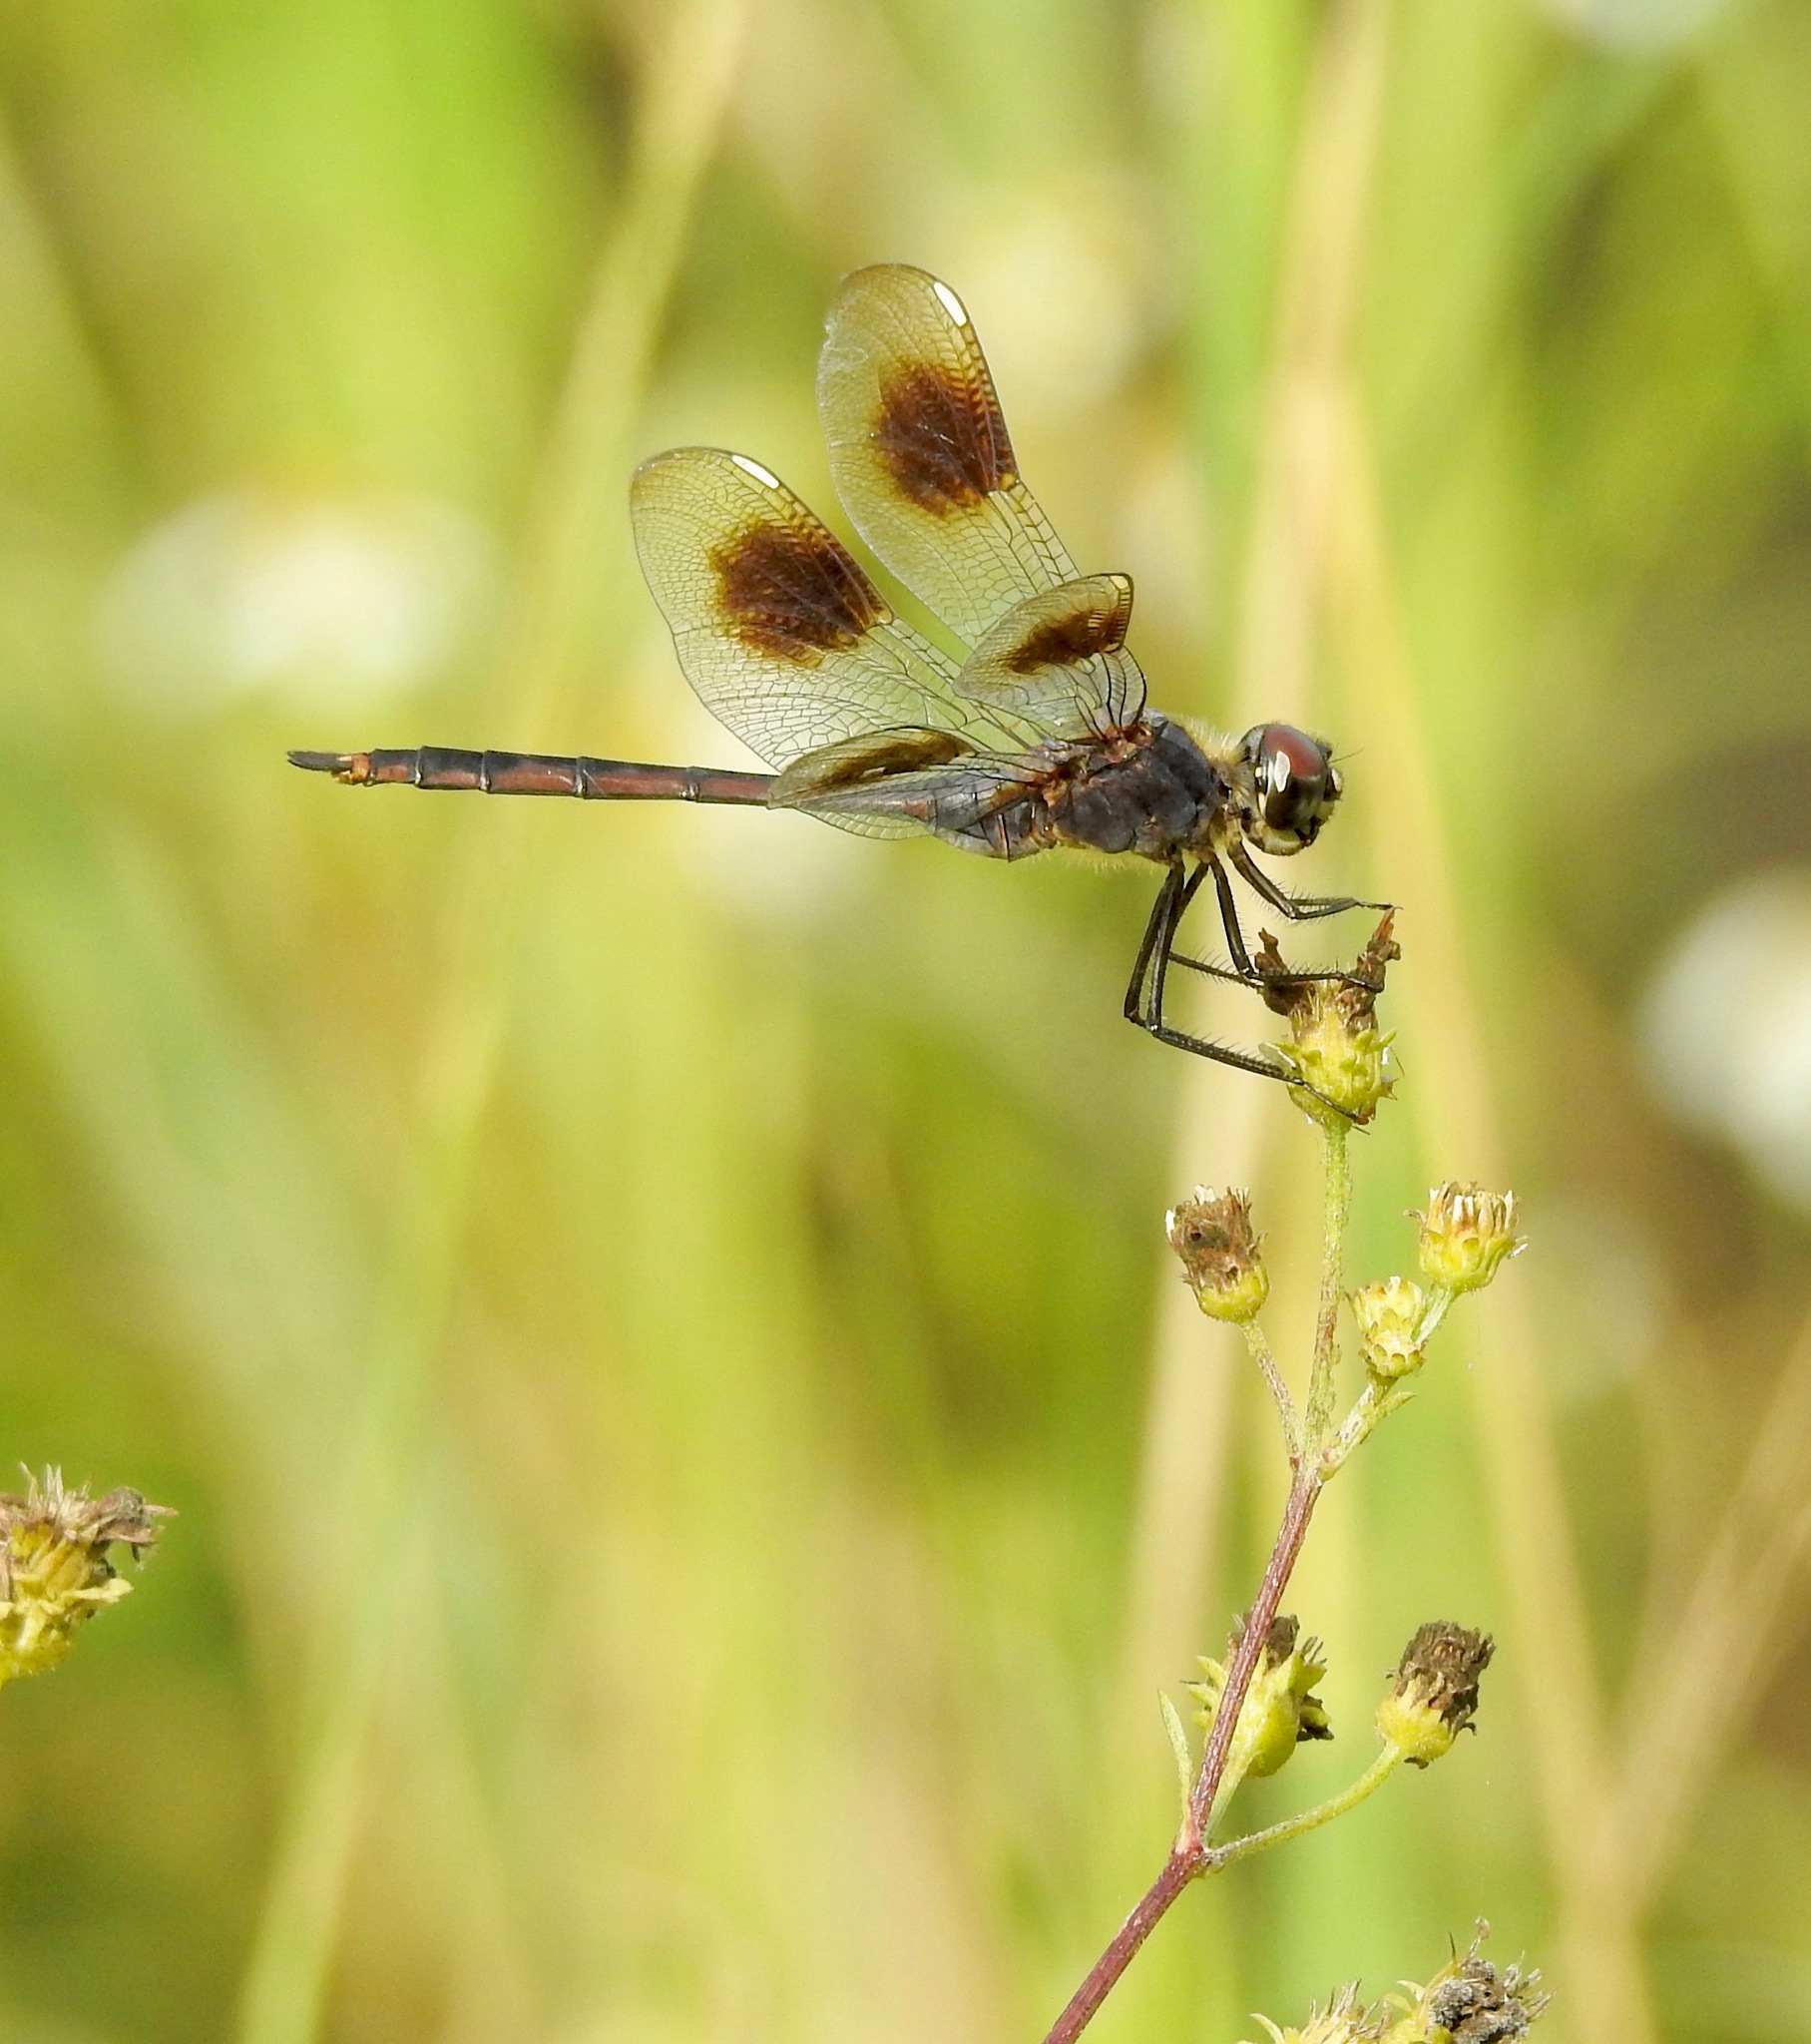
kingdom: Animalia
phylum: Arthropoda
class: Insecta
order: Odonata
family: Libellulidae
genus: Brachymesia
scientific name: Brachymesia gravida
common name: Four-spotted pennant
